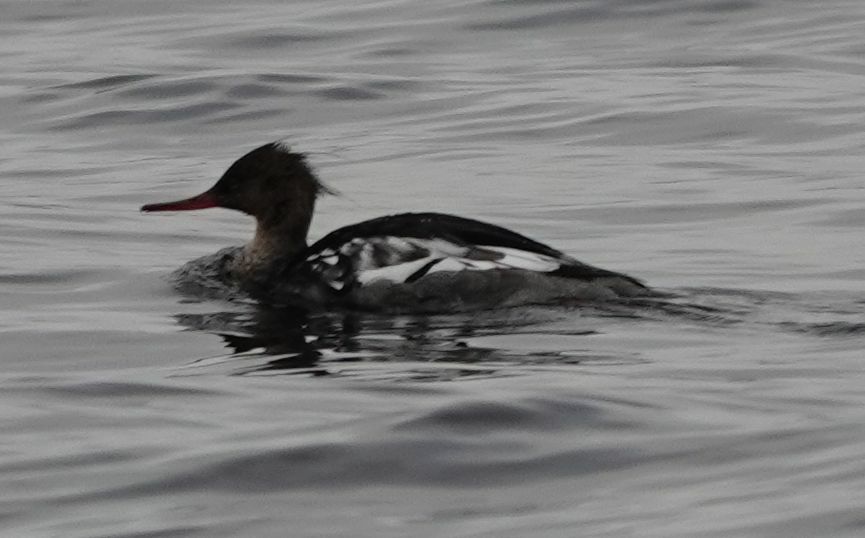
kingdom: Animalia
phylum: Chordata
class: Aves
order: Anseriformes
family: Anatidae
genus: Mergus
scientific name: Mergus serrator
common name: Red-breasted merganser
